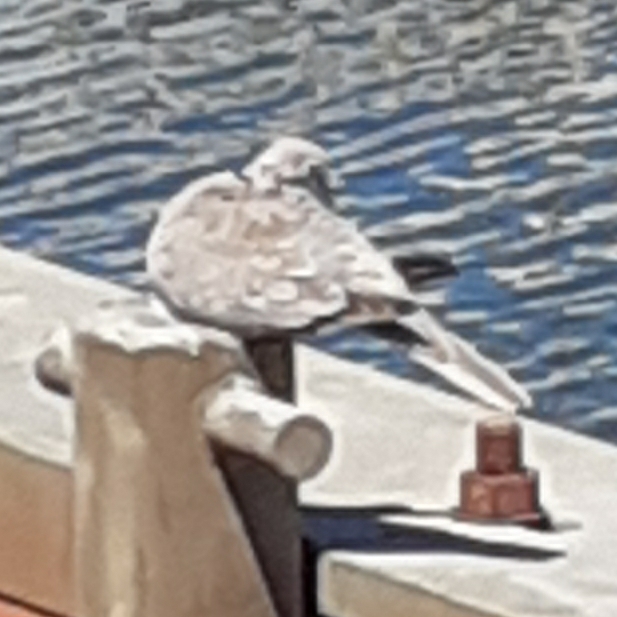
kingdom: Animalia
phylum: Chordata
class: Aves
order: Columbiformes
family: Columbidae
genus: Streptopelia
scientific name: Streptopelia decaocto
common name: Eurasian collared dove
